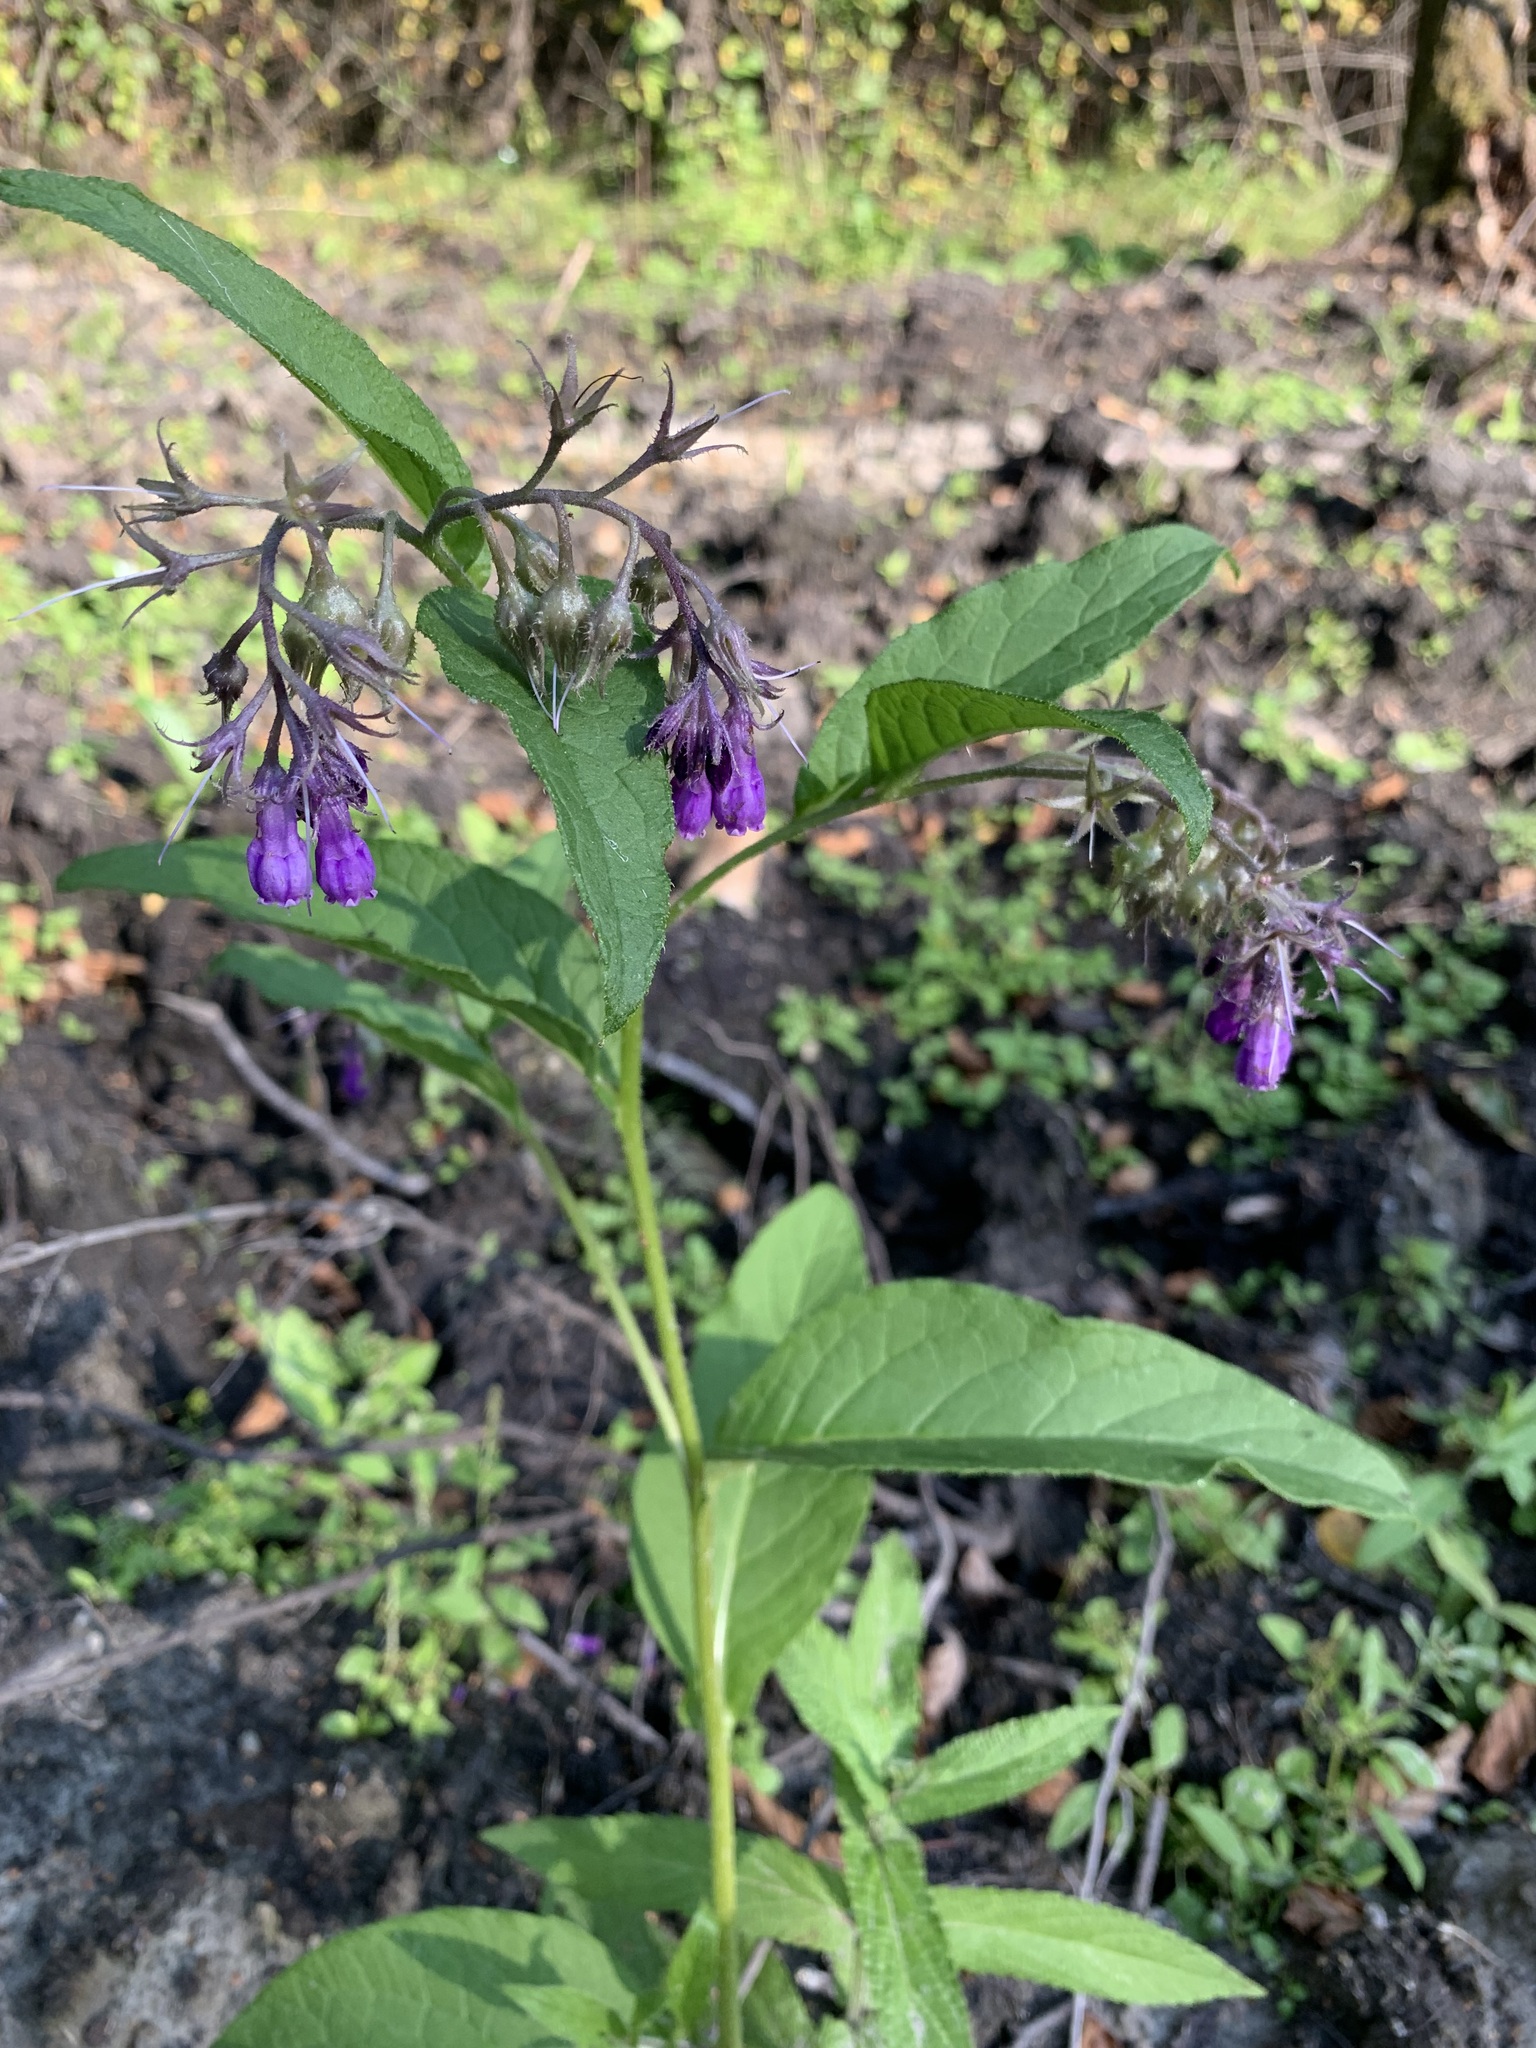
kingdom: Plantae
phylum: Tracheophyta
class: Magnoliopsida
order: Boraginales
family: Boraginaceae
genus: Symphytum
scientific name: Symphytum officinale
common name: Common comfrey
